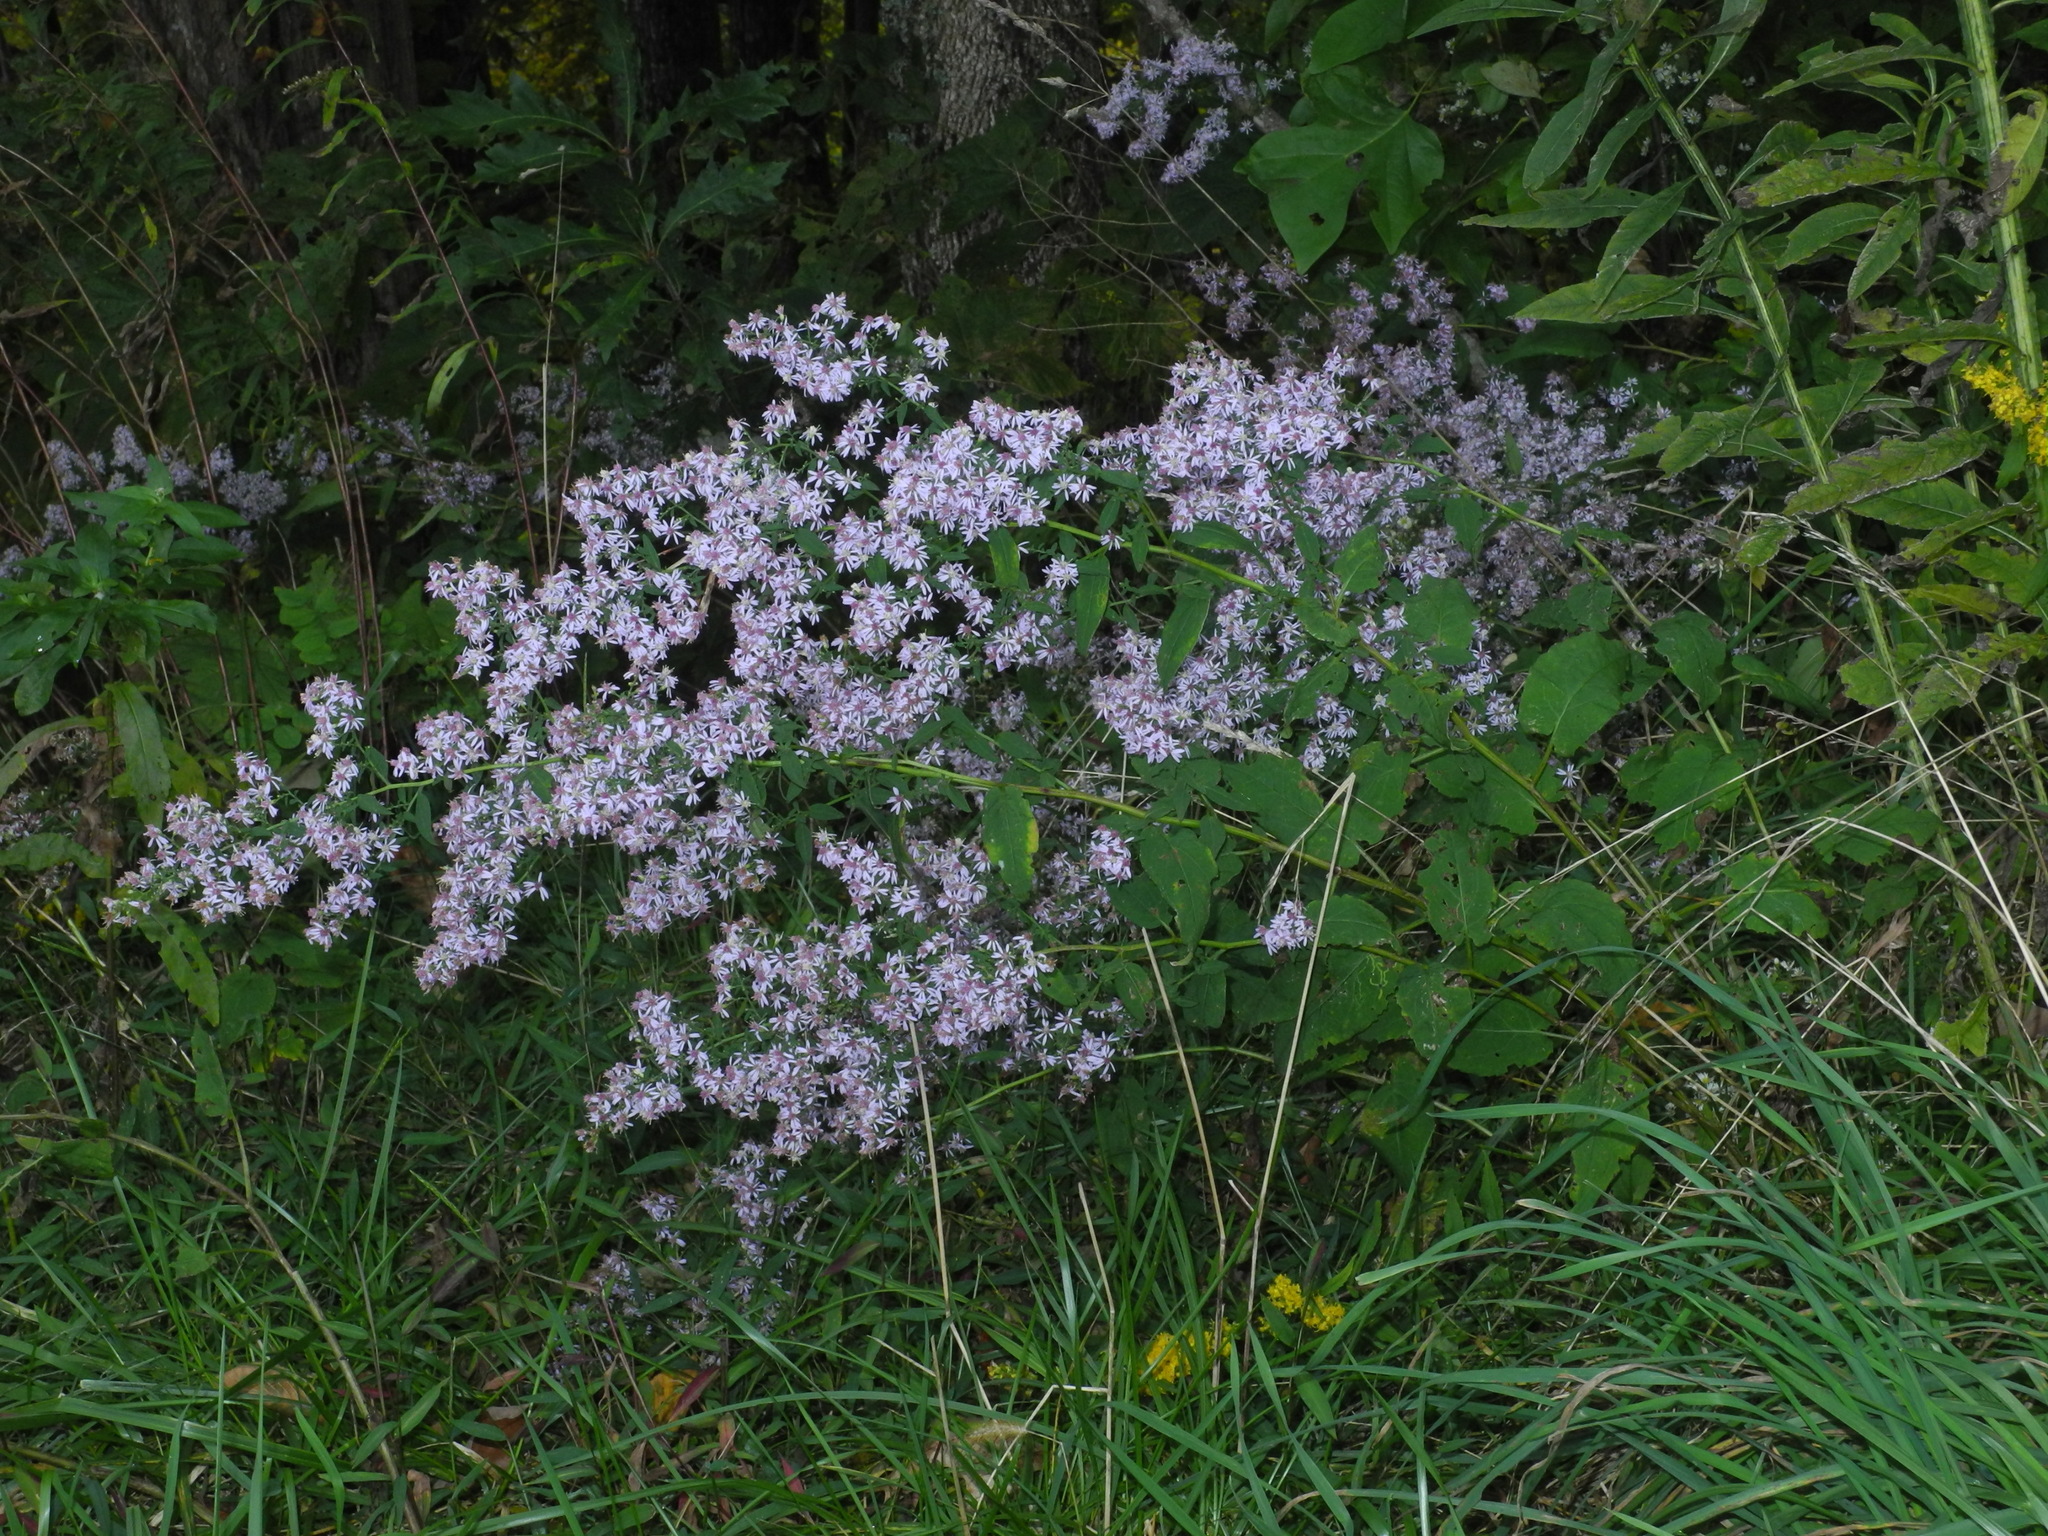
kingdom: Plantae
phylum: Tracheophyta
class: Magnoliopsida
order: Asterales
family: Asteraceae
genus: Symphyotrichum
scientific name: Symphyotrichum cordifolium
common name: Beeweed
